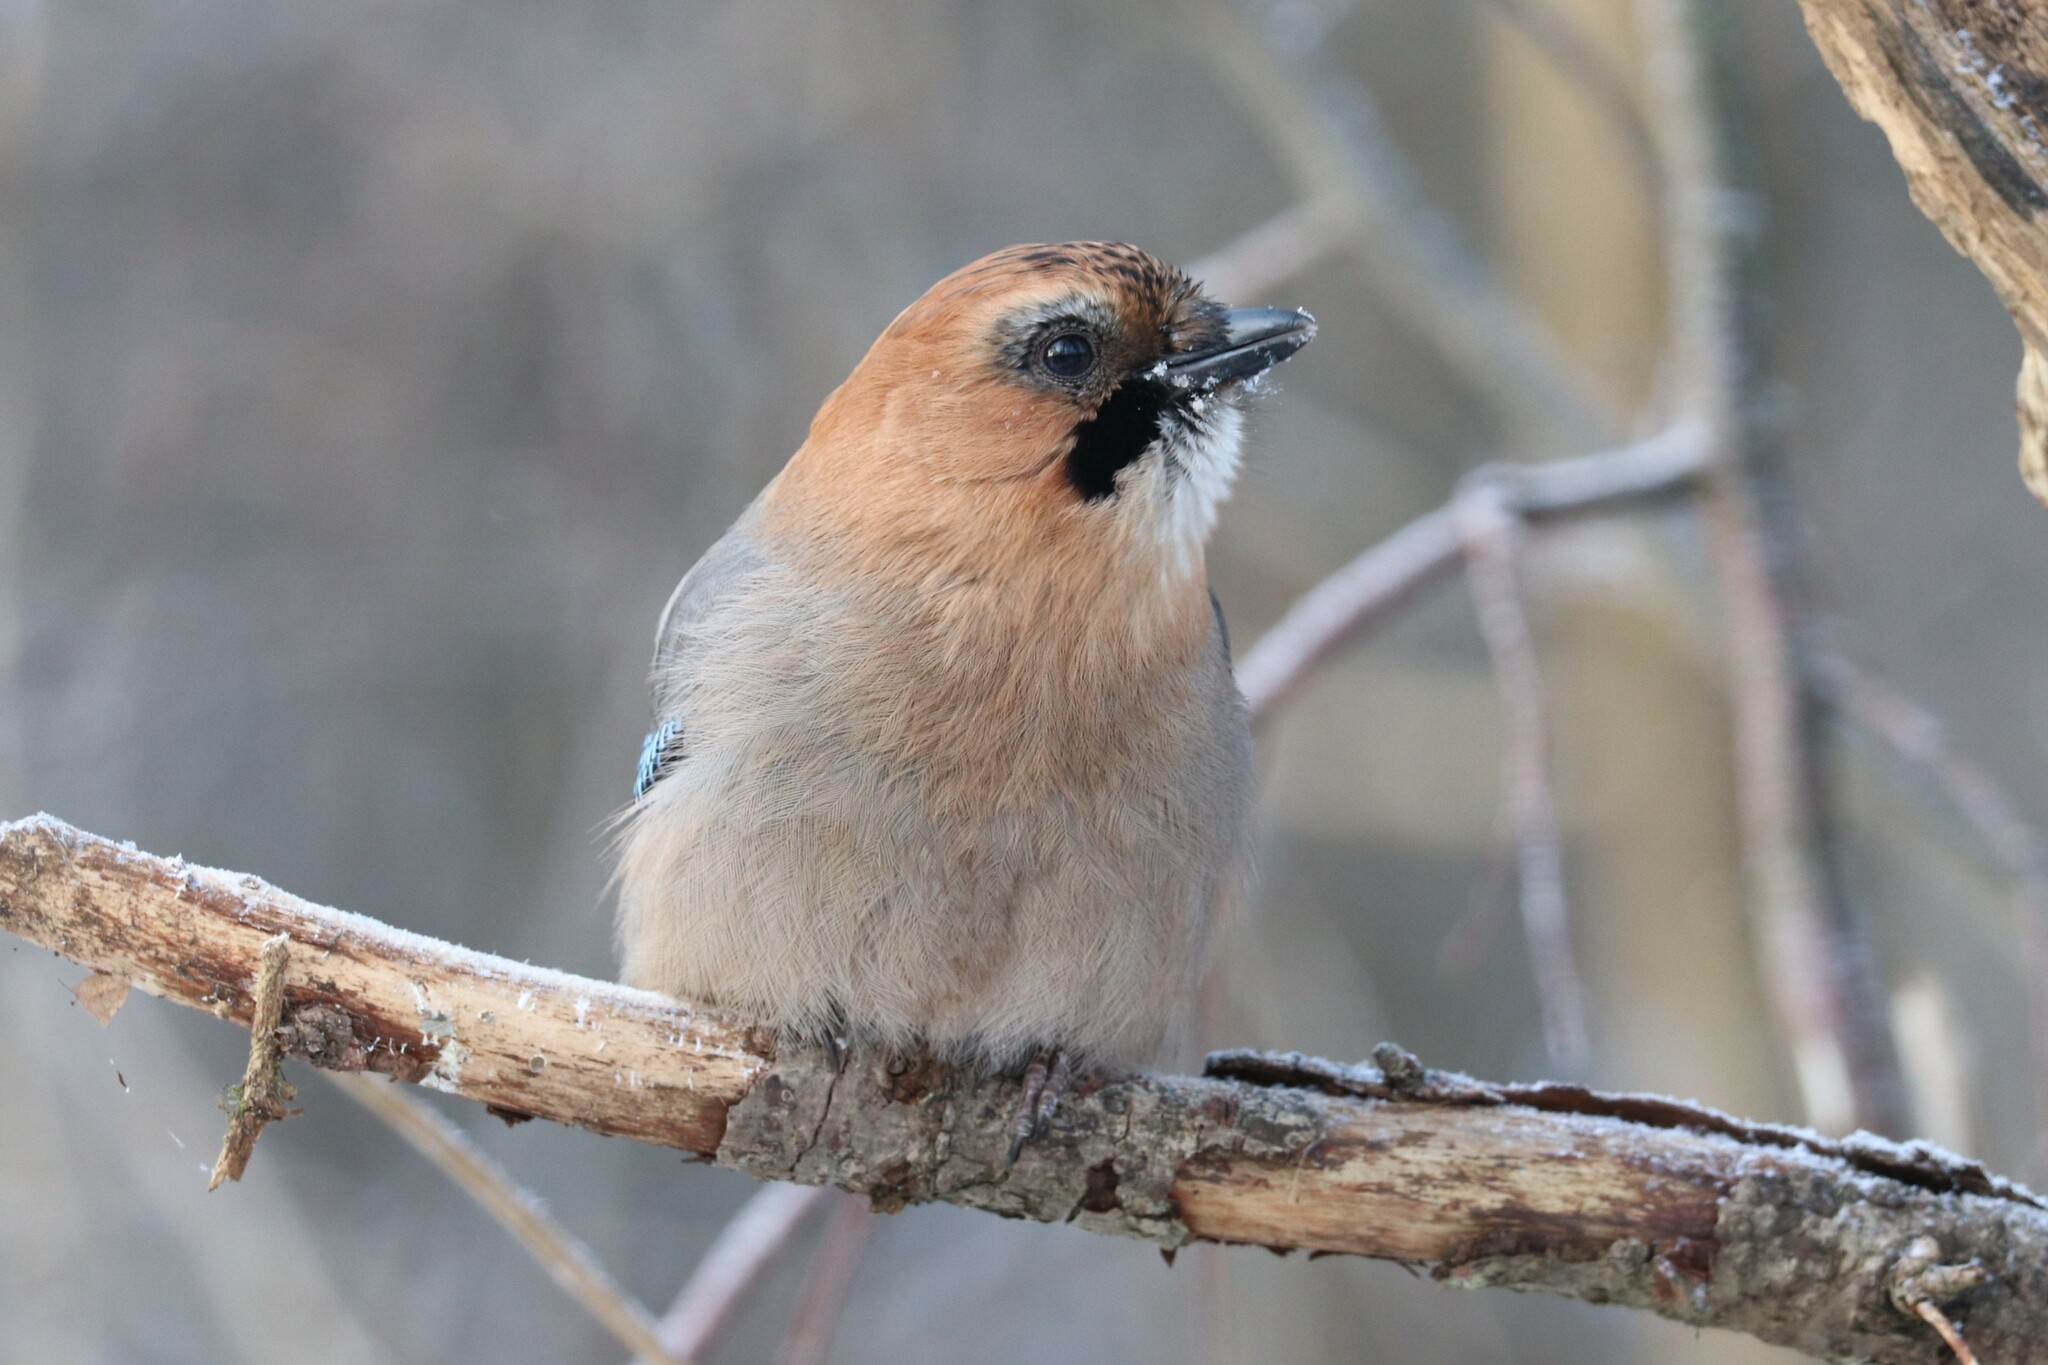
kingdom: Animalia
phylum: Chordata
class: Aves
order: Passeriformes
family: Corvidae
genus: Garrulus
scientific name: Garrulus glandarius
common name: Eurasian jay
